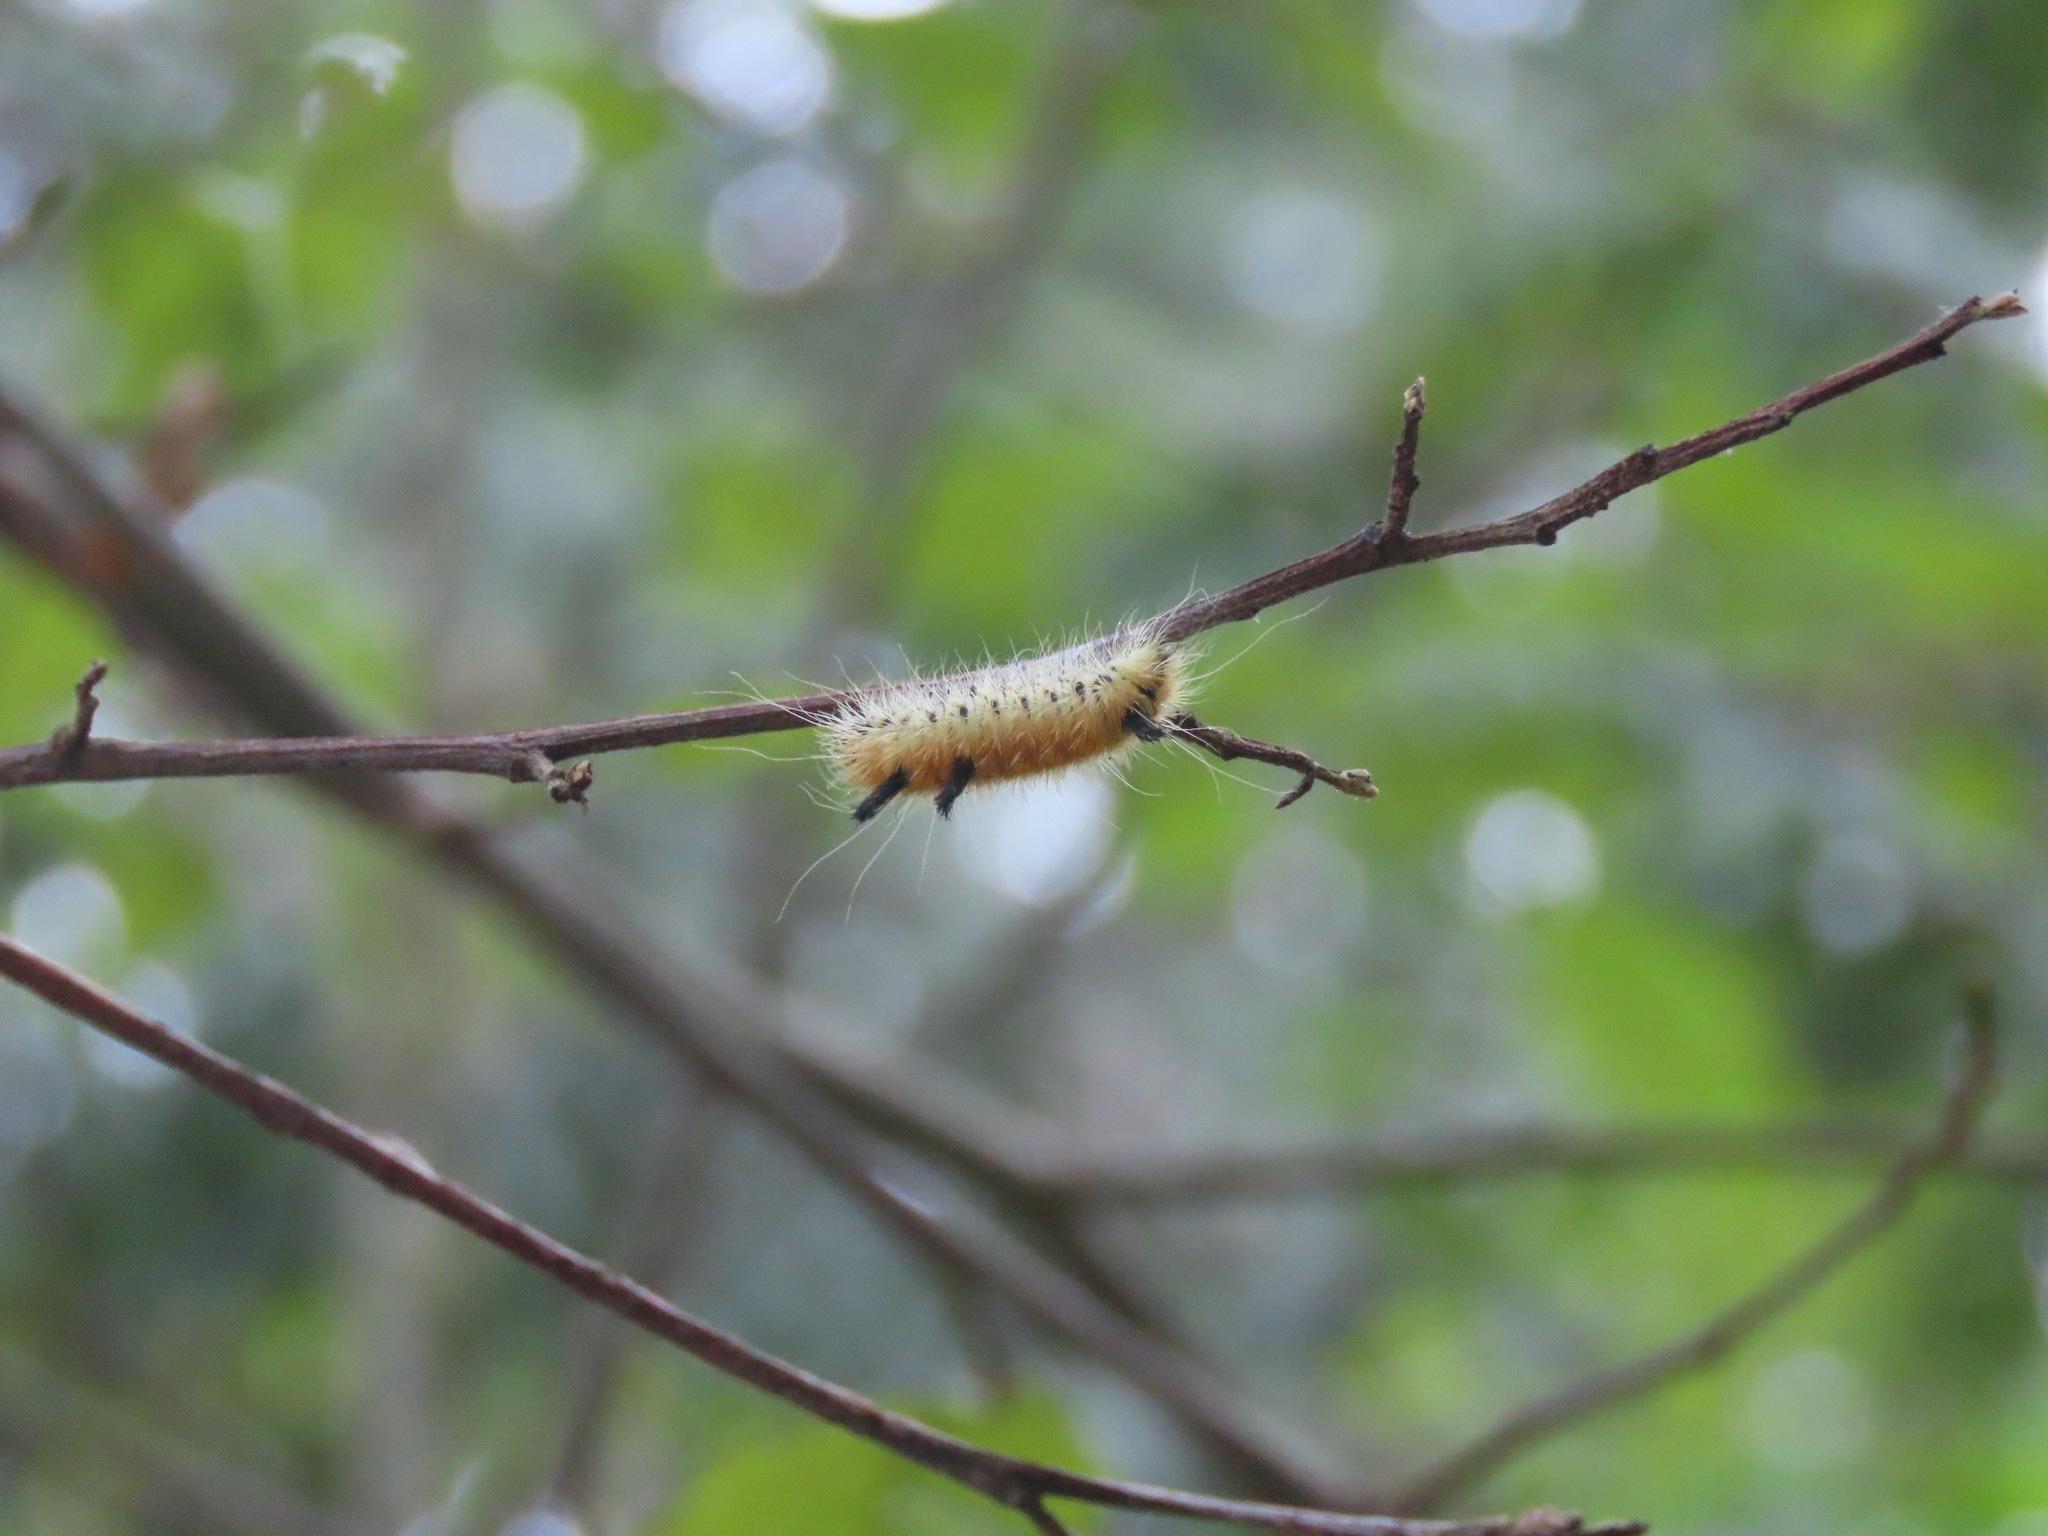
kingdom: Animalia
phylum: Arthropoda
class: Insecta
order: Lepidoptera
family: Noctuidae
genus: Acronicta
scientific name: Acronicta insita
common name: Large gray dagger
